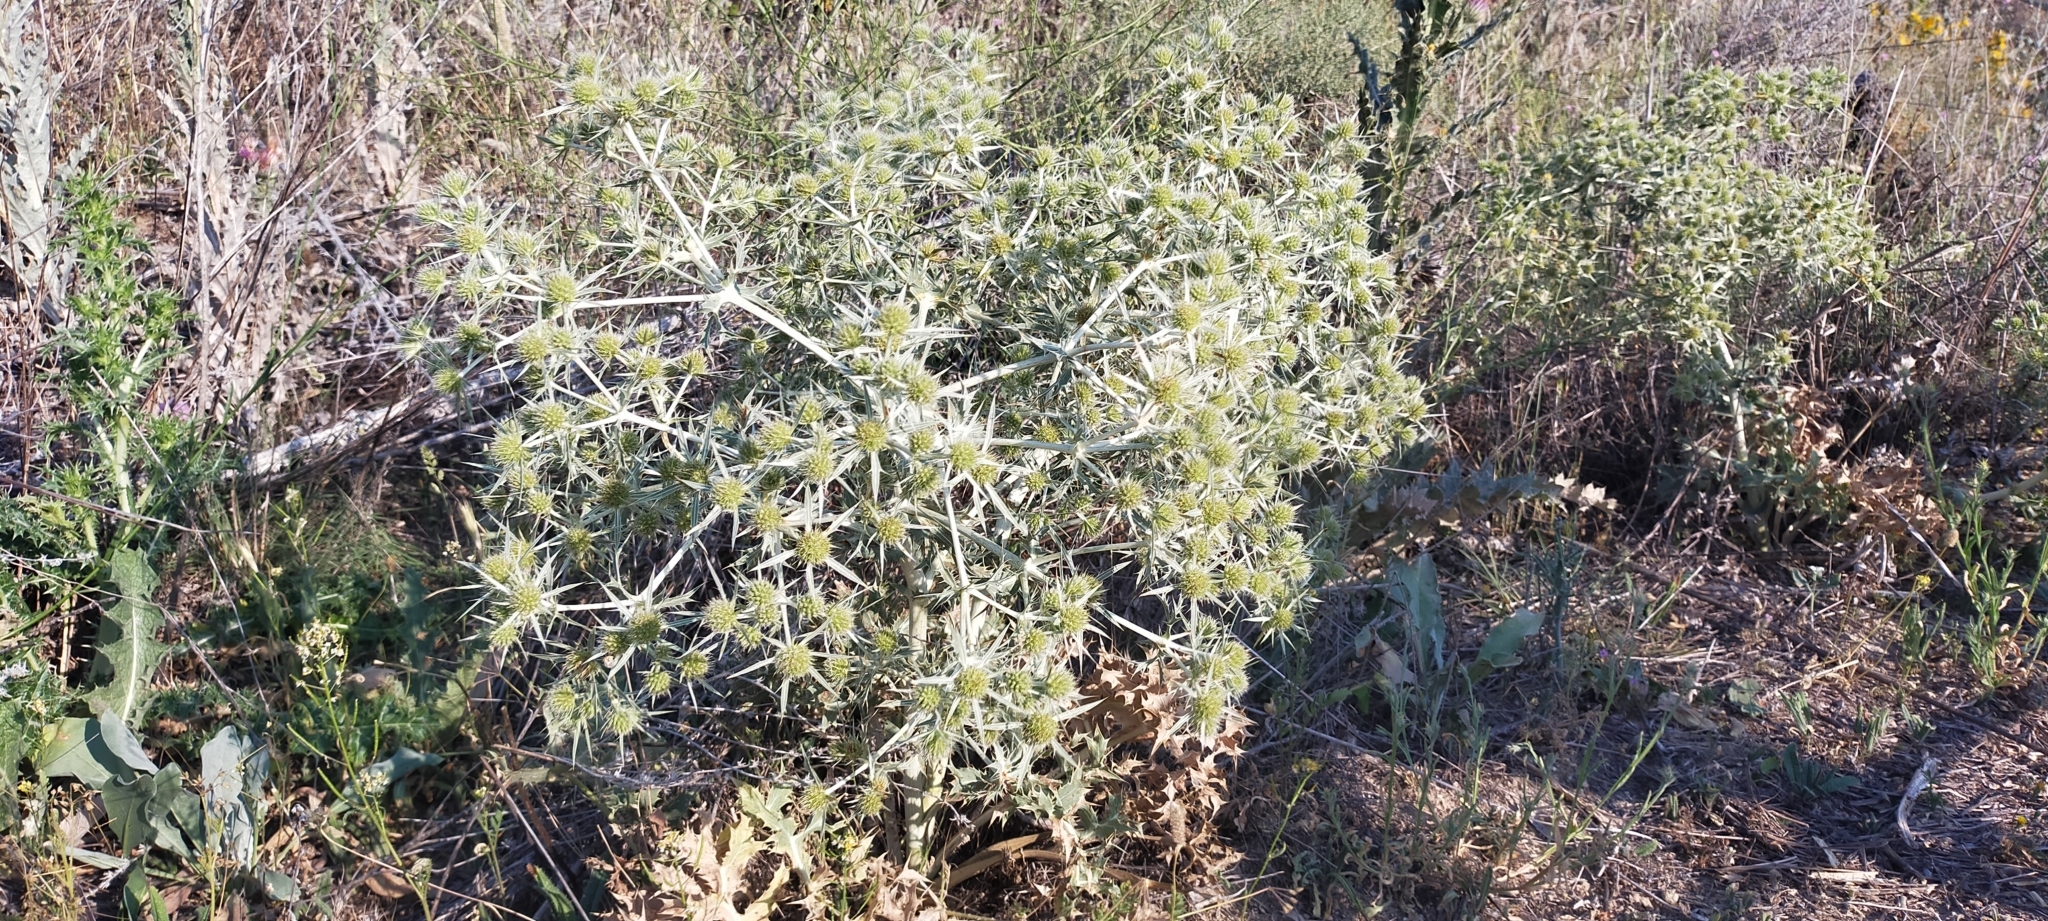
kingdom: Plantae
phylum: Tracheophyta
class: Magnoliopsida
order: Apiales
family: Apiaceae
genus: Eryngium
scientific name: Eryngium campestre
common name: Field eryngo
